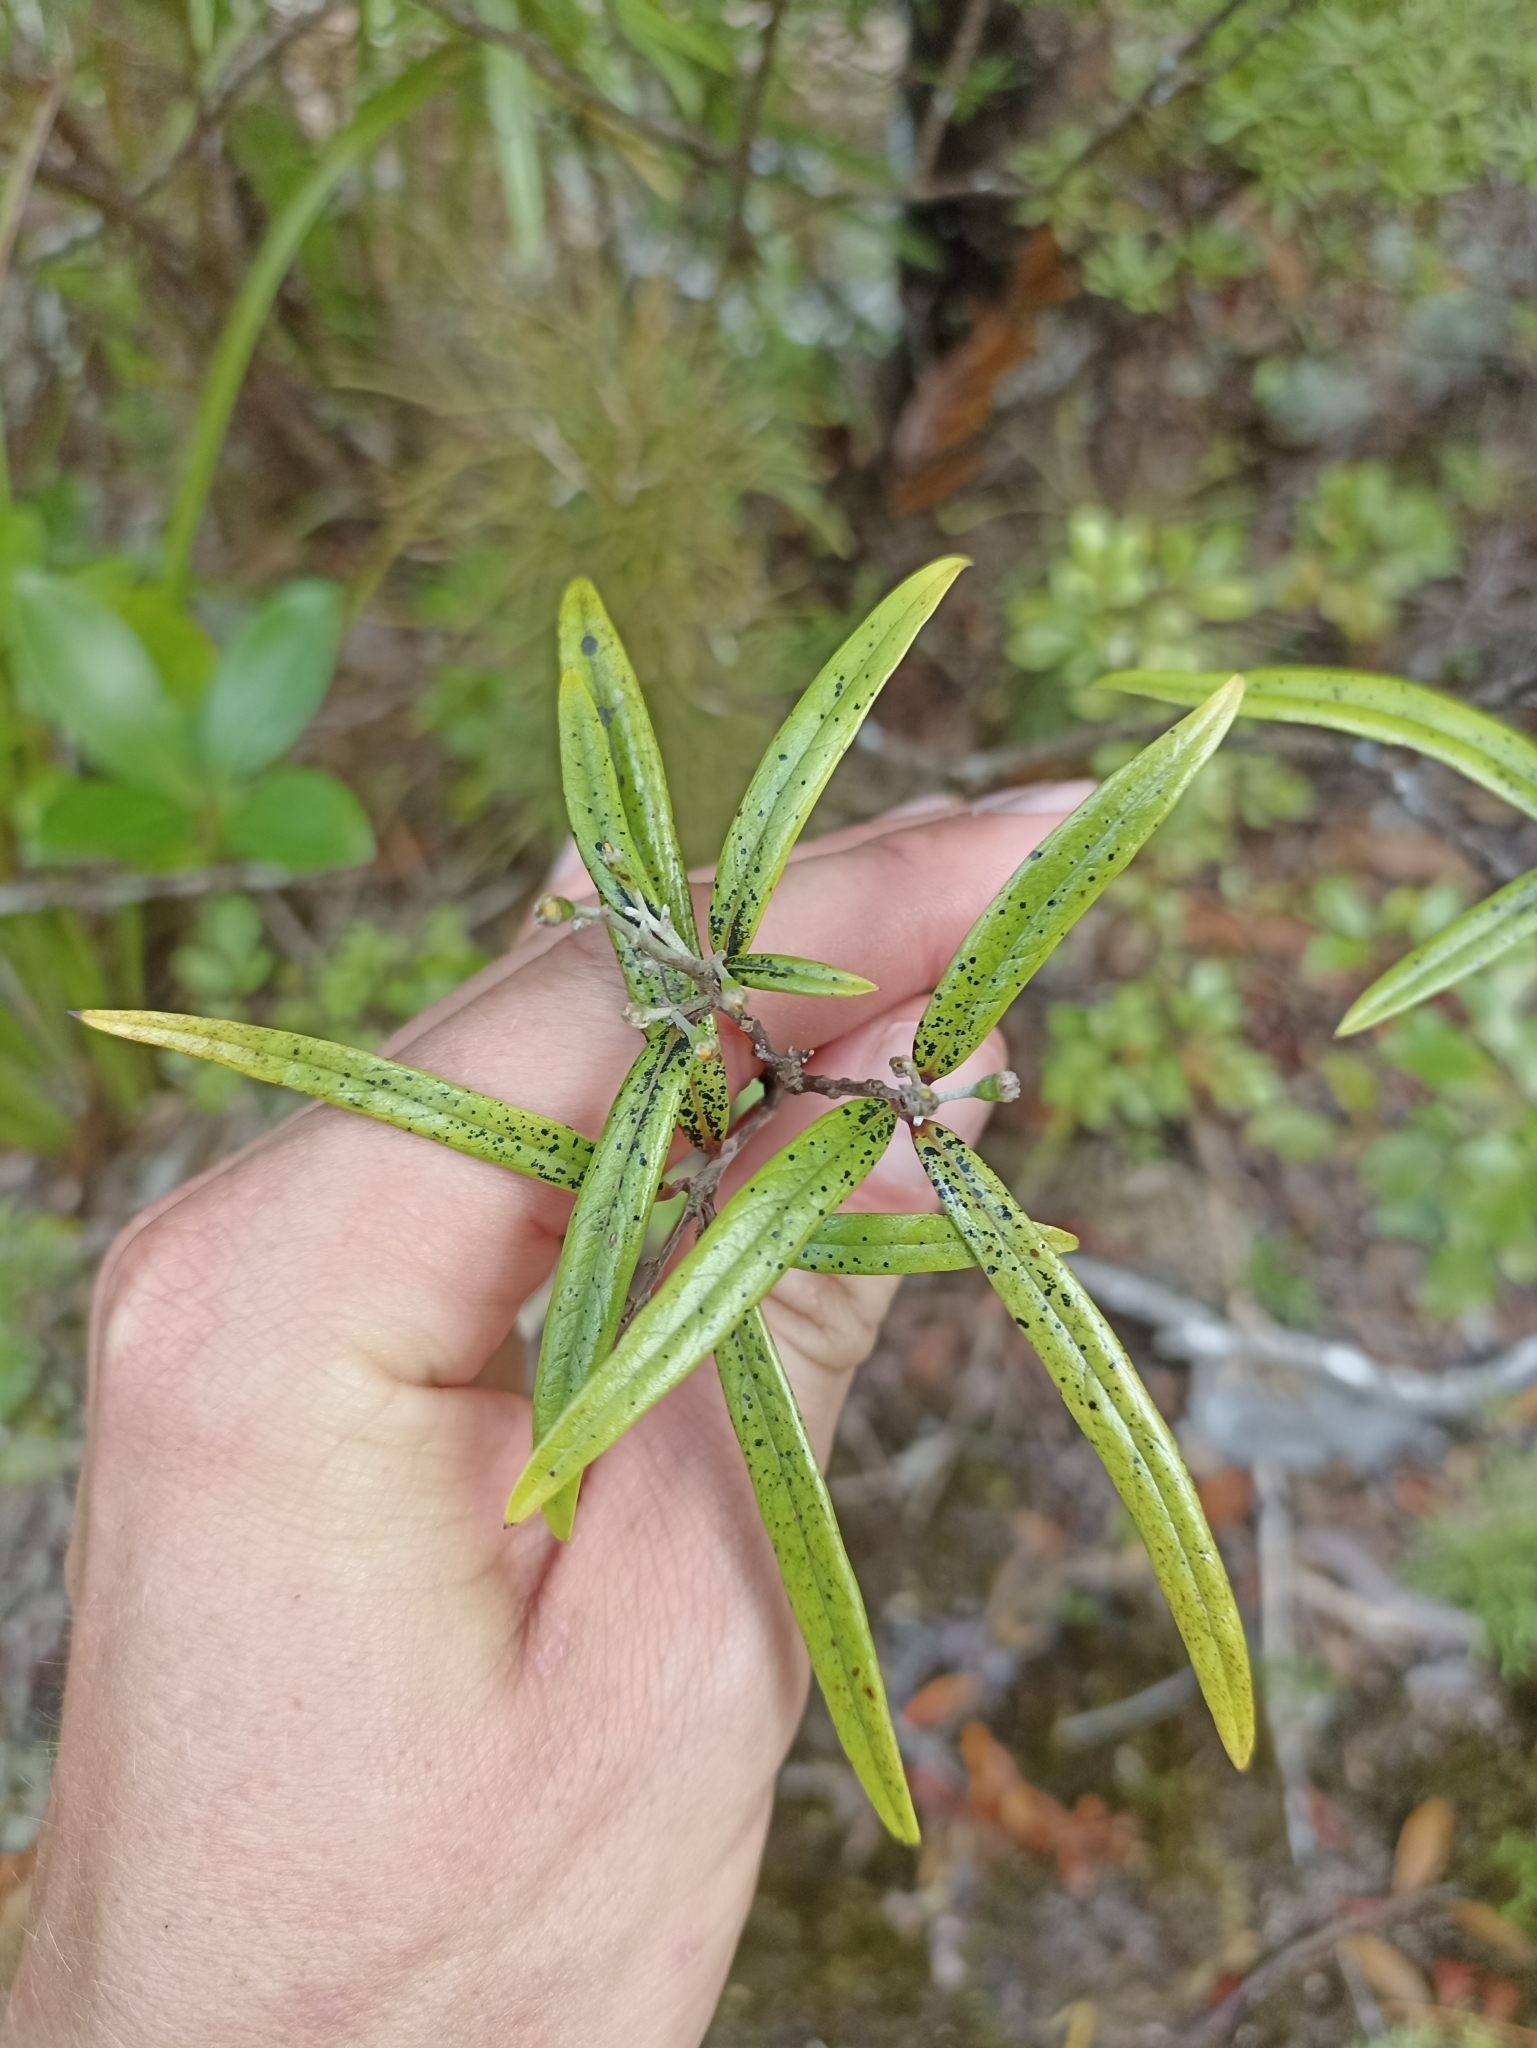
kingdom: Plantae
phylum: Tracheophyta
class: Magnoliopsida
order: Asterales
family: Argophyllaceae
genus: Corokia
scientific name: Corokia buddleioides
